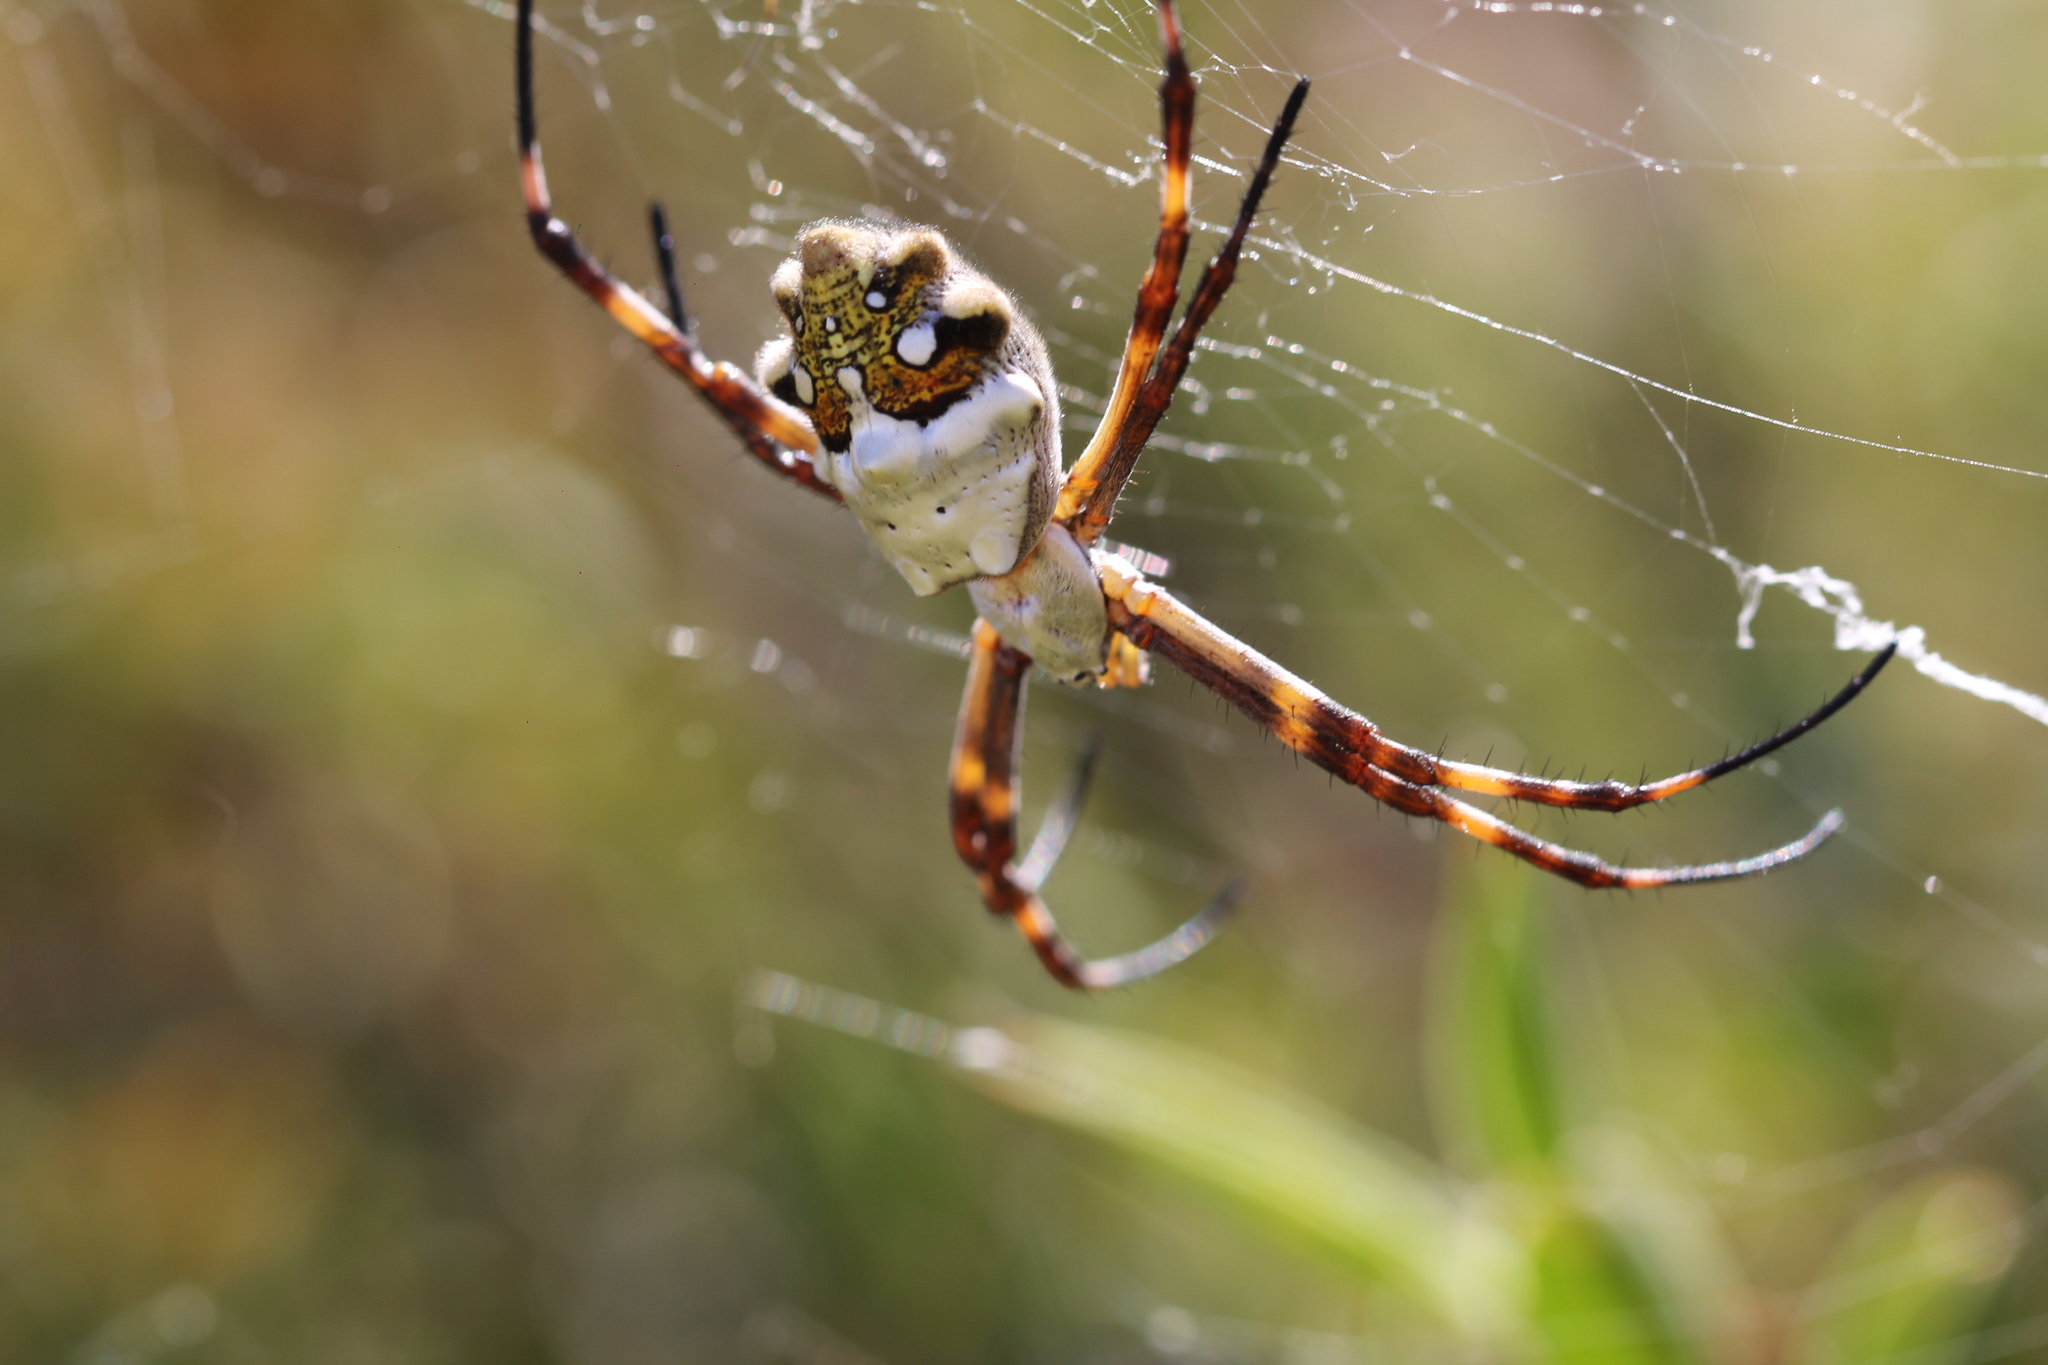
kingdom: Animalia
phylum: Arthropoda
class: Arachnida
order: Araneae
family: Araneidae
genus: Argiope
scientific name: Argiope argentata
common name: Orb weavers
